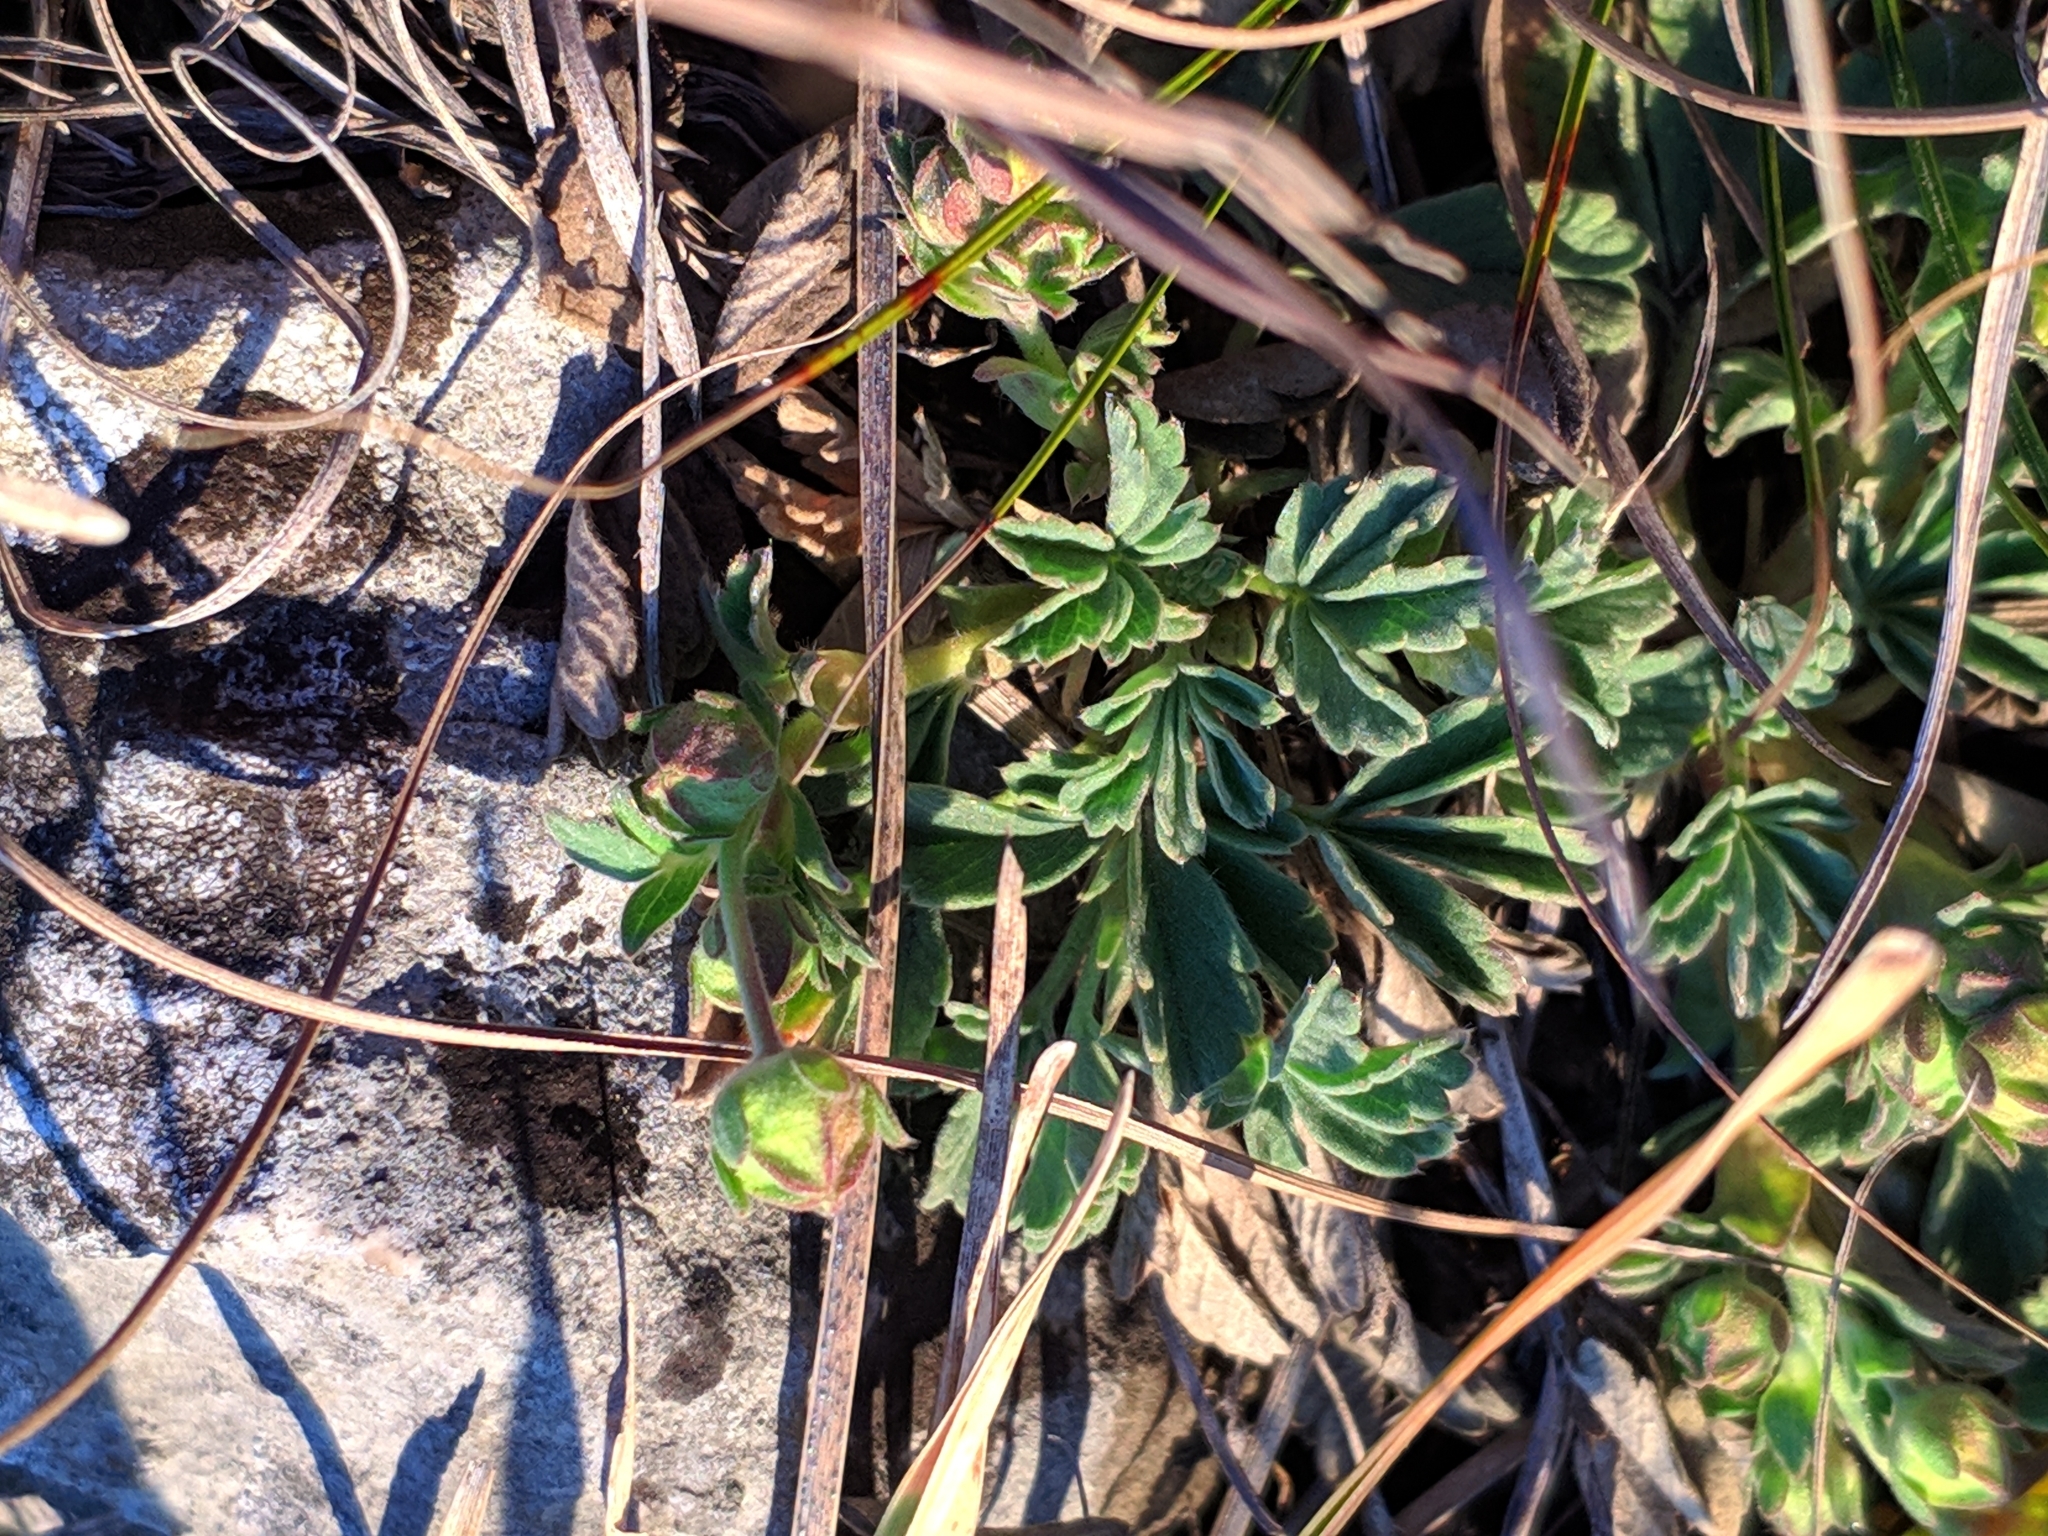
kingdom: Plantae
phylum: Tracheophyta
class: Magnoliopsida
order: Rosales
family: Rosaceae
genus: Potentilla
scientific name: Potentilla incana
